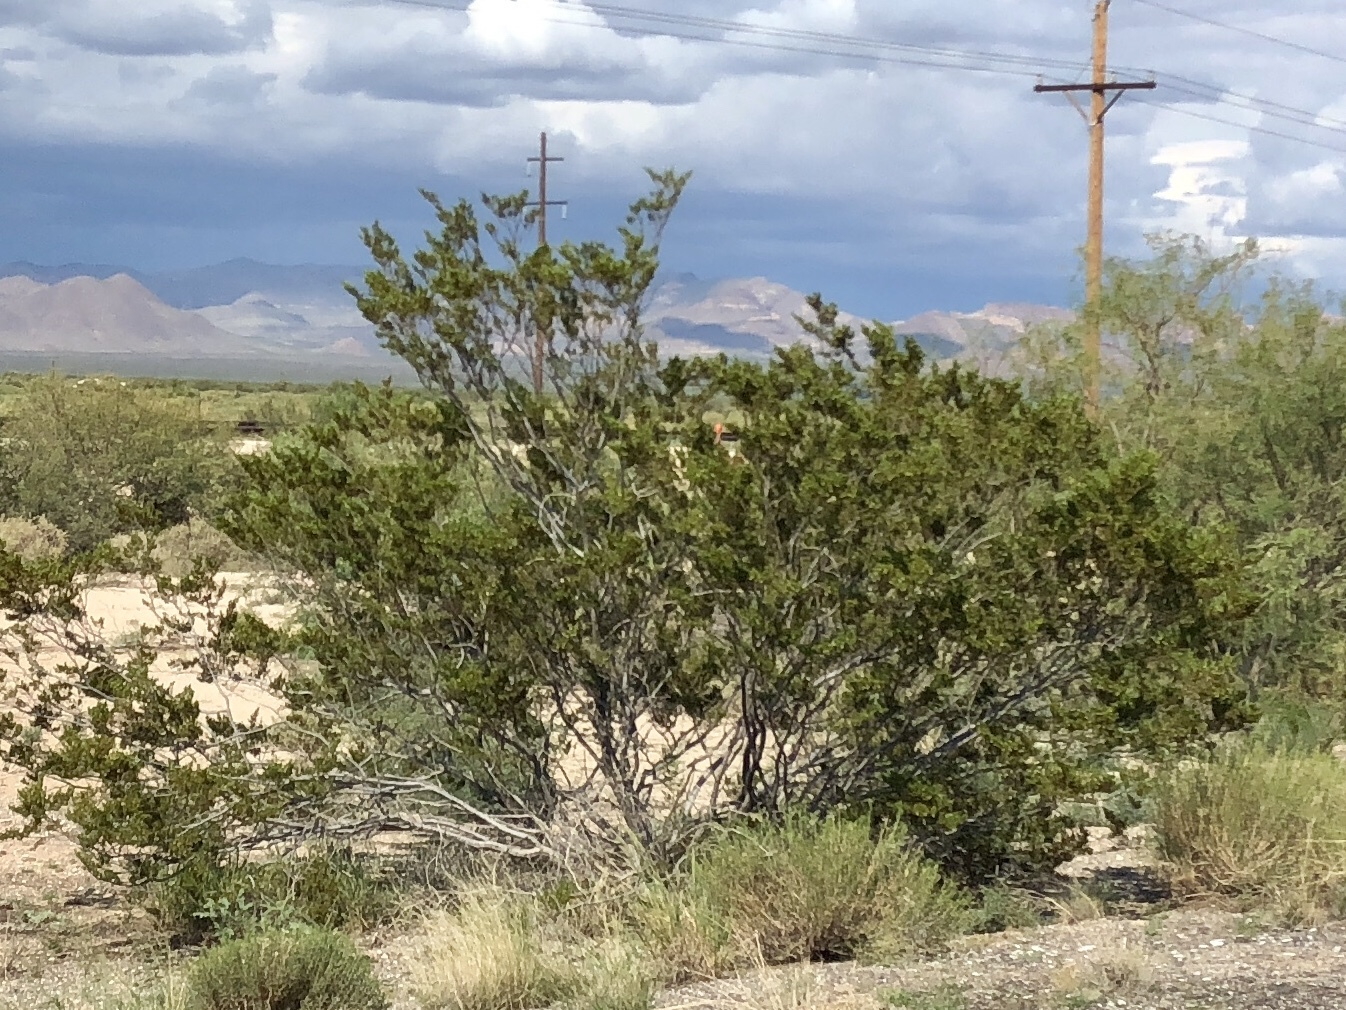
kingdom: Plantae
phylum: Tracheophyta
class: Magnoliopsida
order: Zygophyllales
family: Zygophyllaceae
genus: Larrea
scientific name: Larrea tridentata
